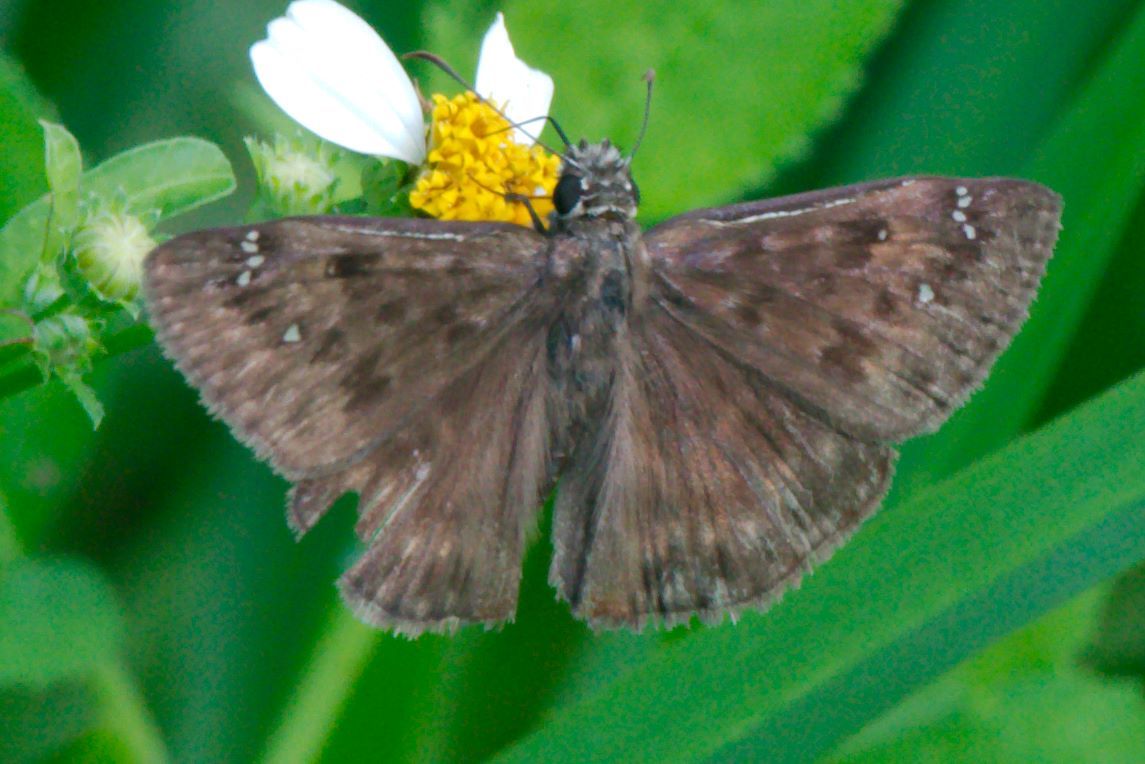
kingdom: Animalia
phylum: Arthropoda
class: Insecta
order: Lepidoptera
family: Hesperiidae
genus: Erynnis
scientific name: Erynnis horatius
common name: Horace's duskywing
